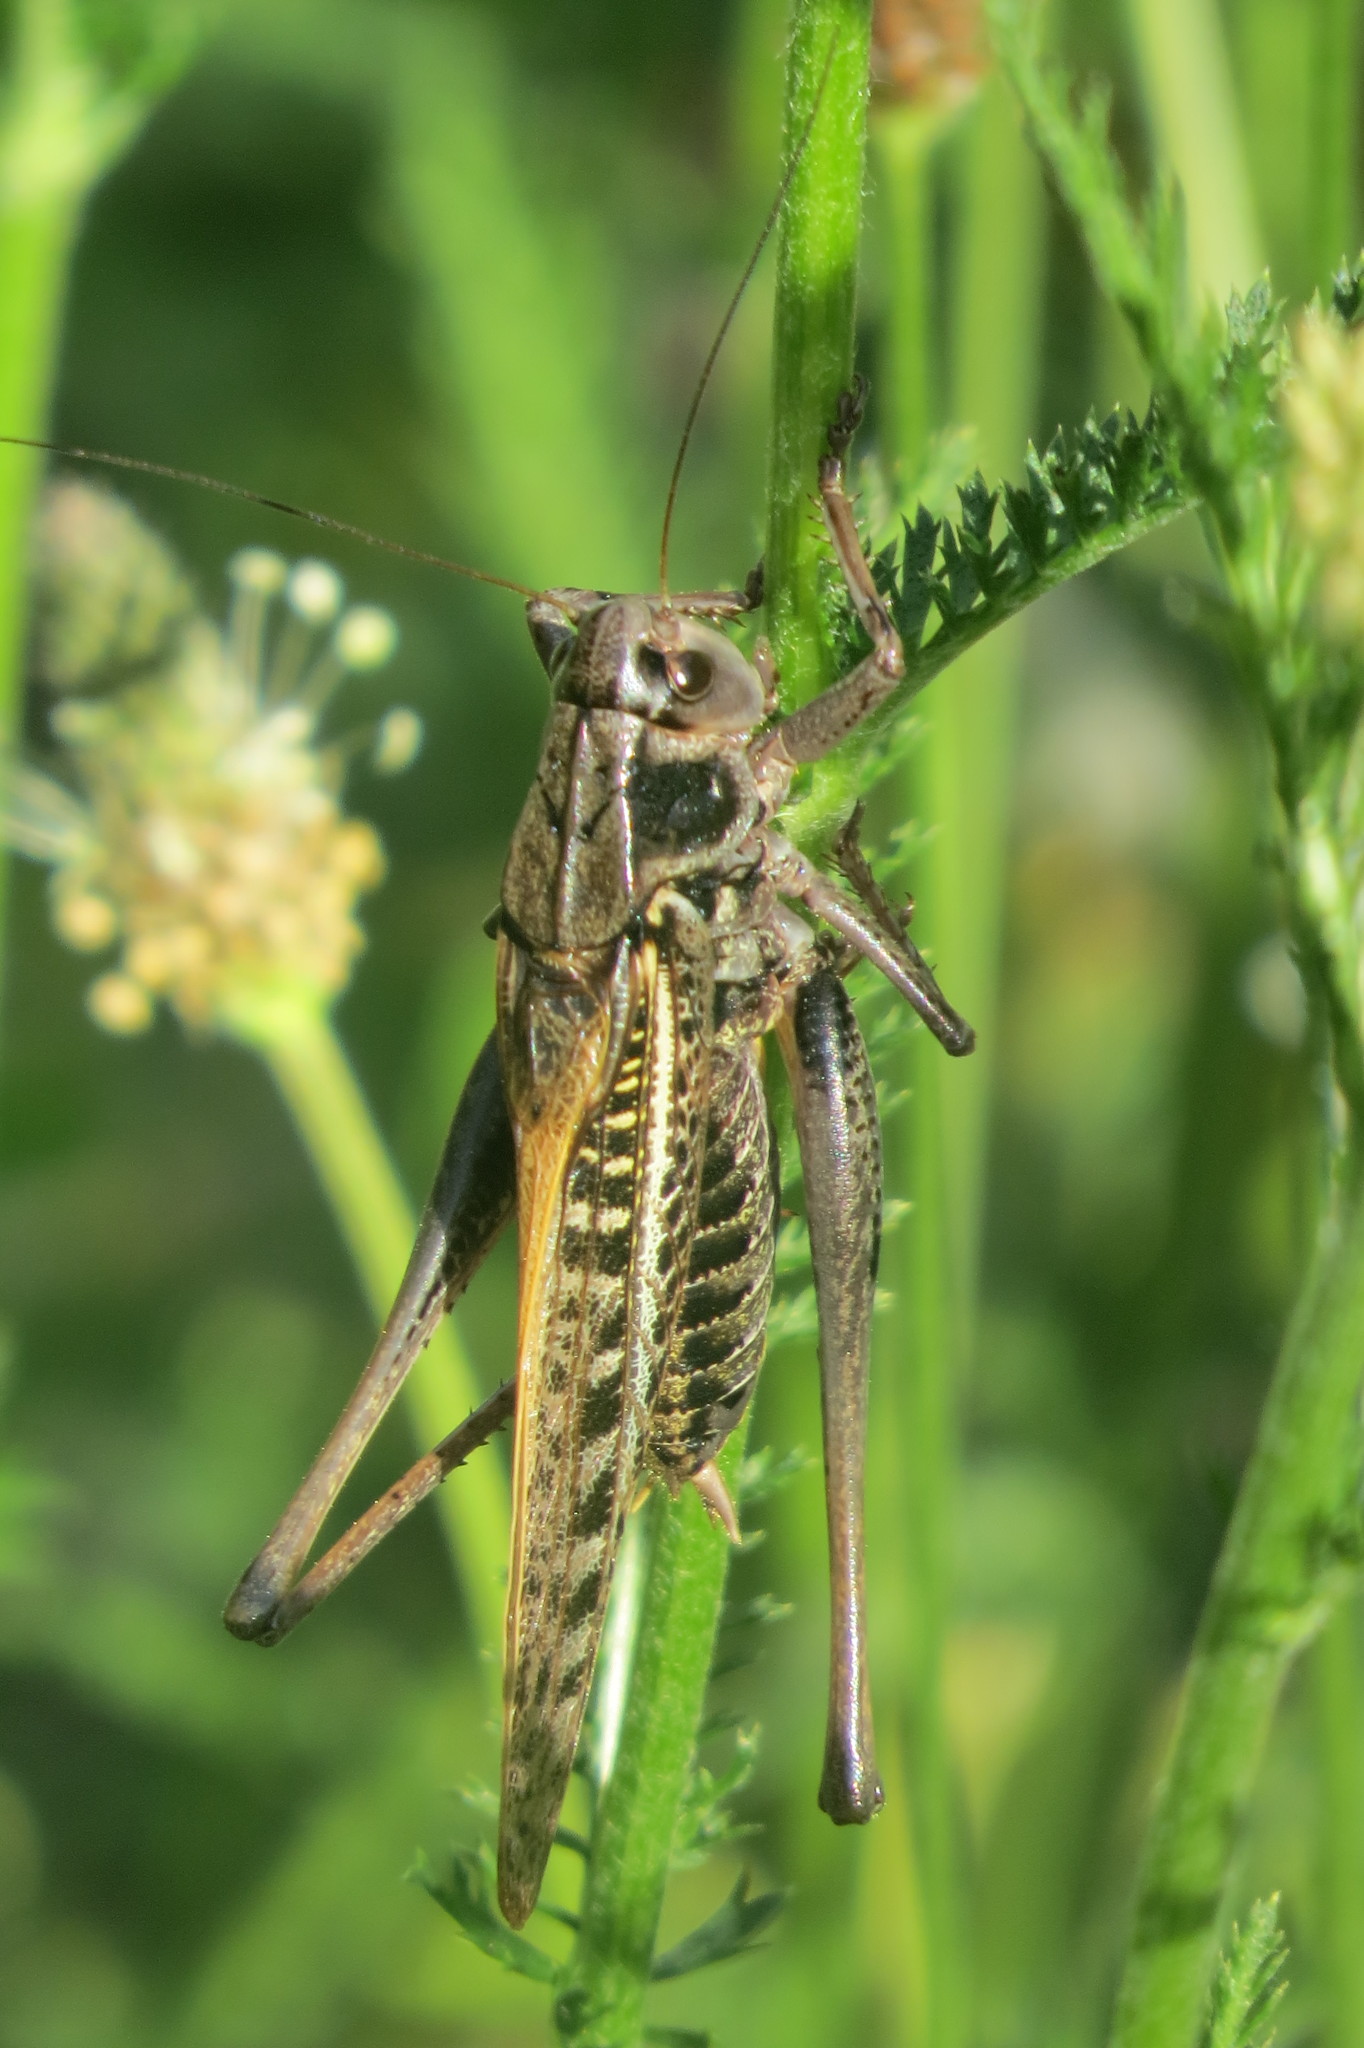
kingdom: Animalia
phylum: Arthropoda
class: Insecta
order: Orthoptera
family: Tettigoniidae
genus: Decticus
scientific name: Decticus verrucivorus
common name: Wart-biter
